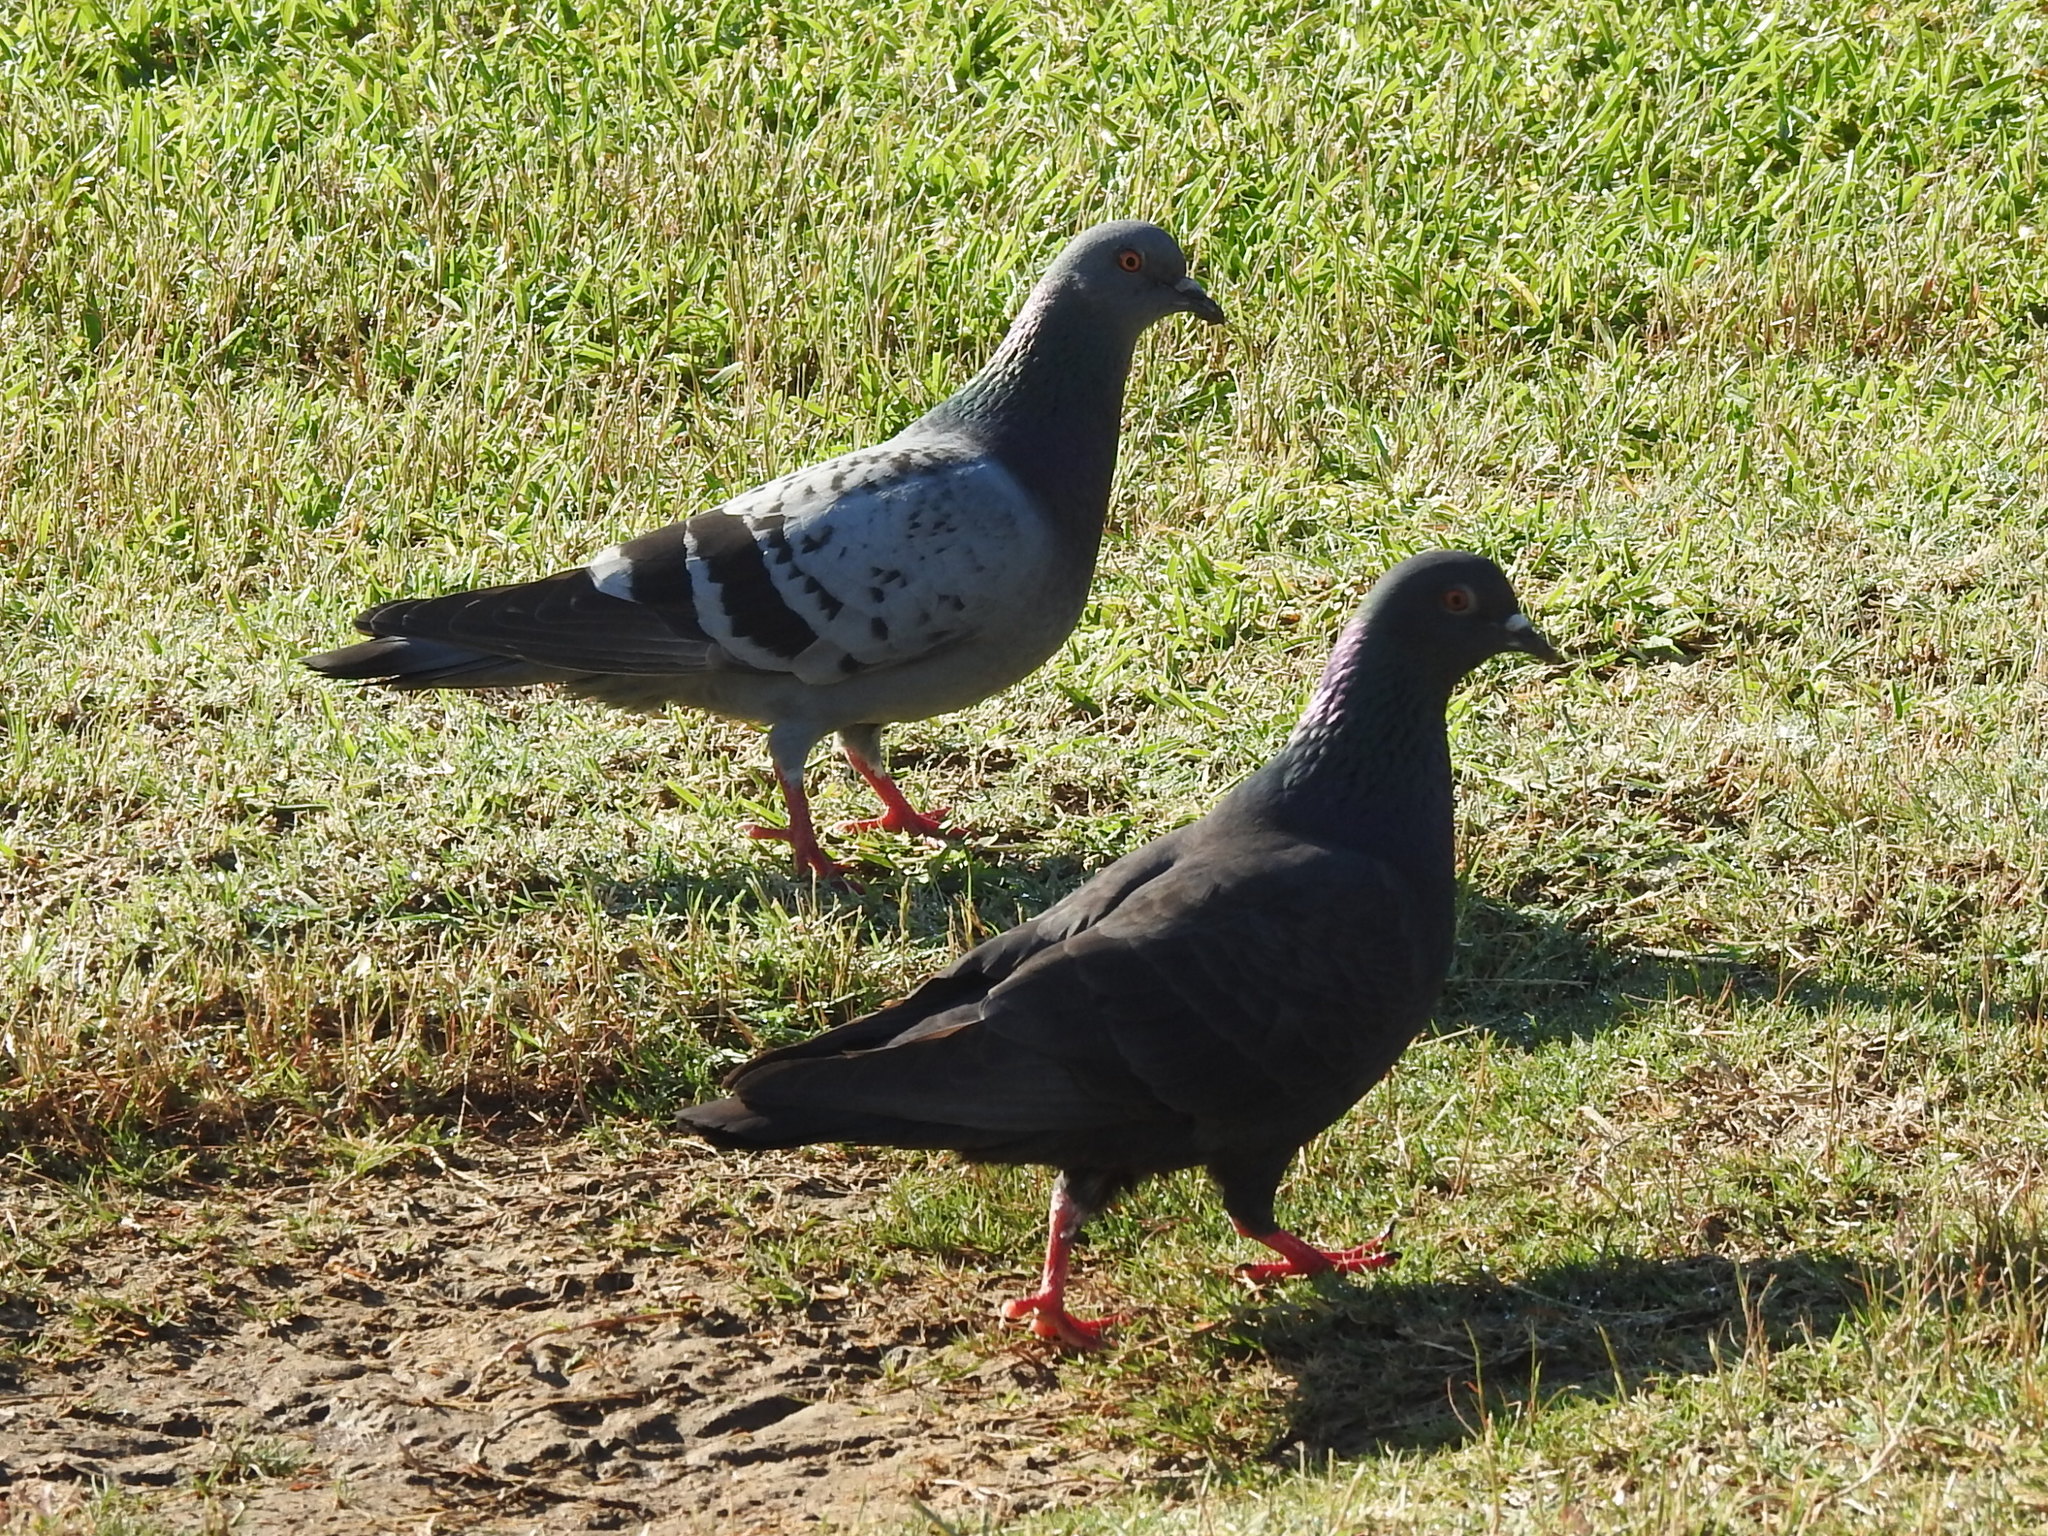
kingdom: Animalia
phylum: Chordata
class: Aves
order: Columbiformes
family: Columbidae
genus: Columba
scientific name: Columba livia
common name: Rock pigeon
